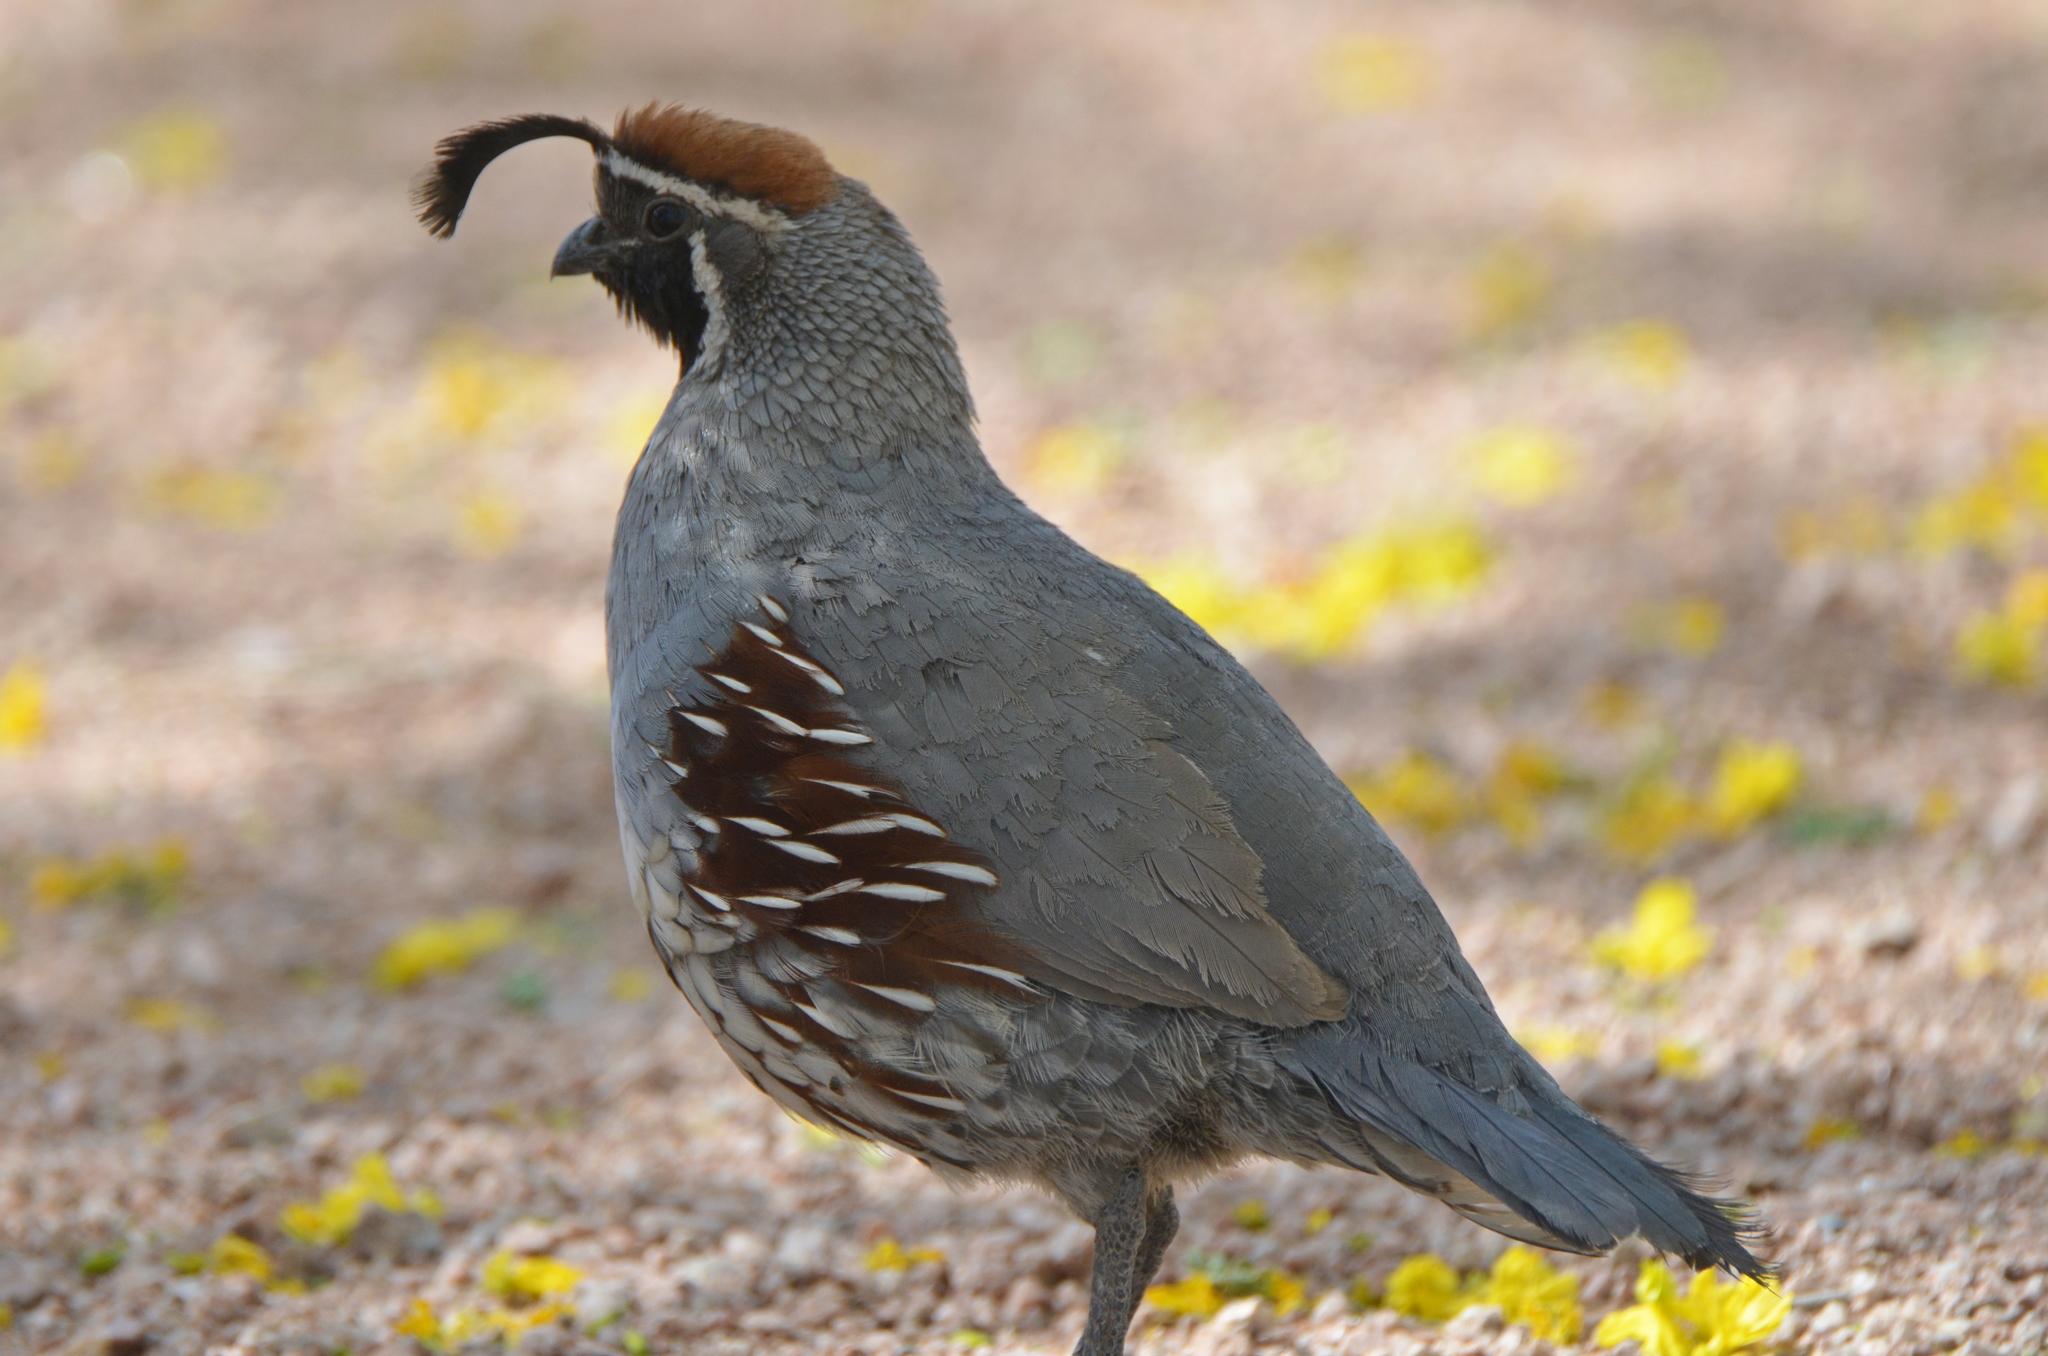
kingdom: Animalia
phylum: Chordata
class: Aves
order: Galliformes
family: Odontophoridae
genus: Callipepla
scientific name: Callipepla gambelii
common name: Gambel's quail
